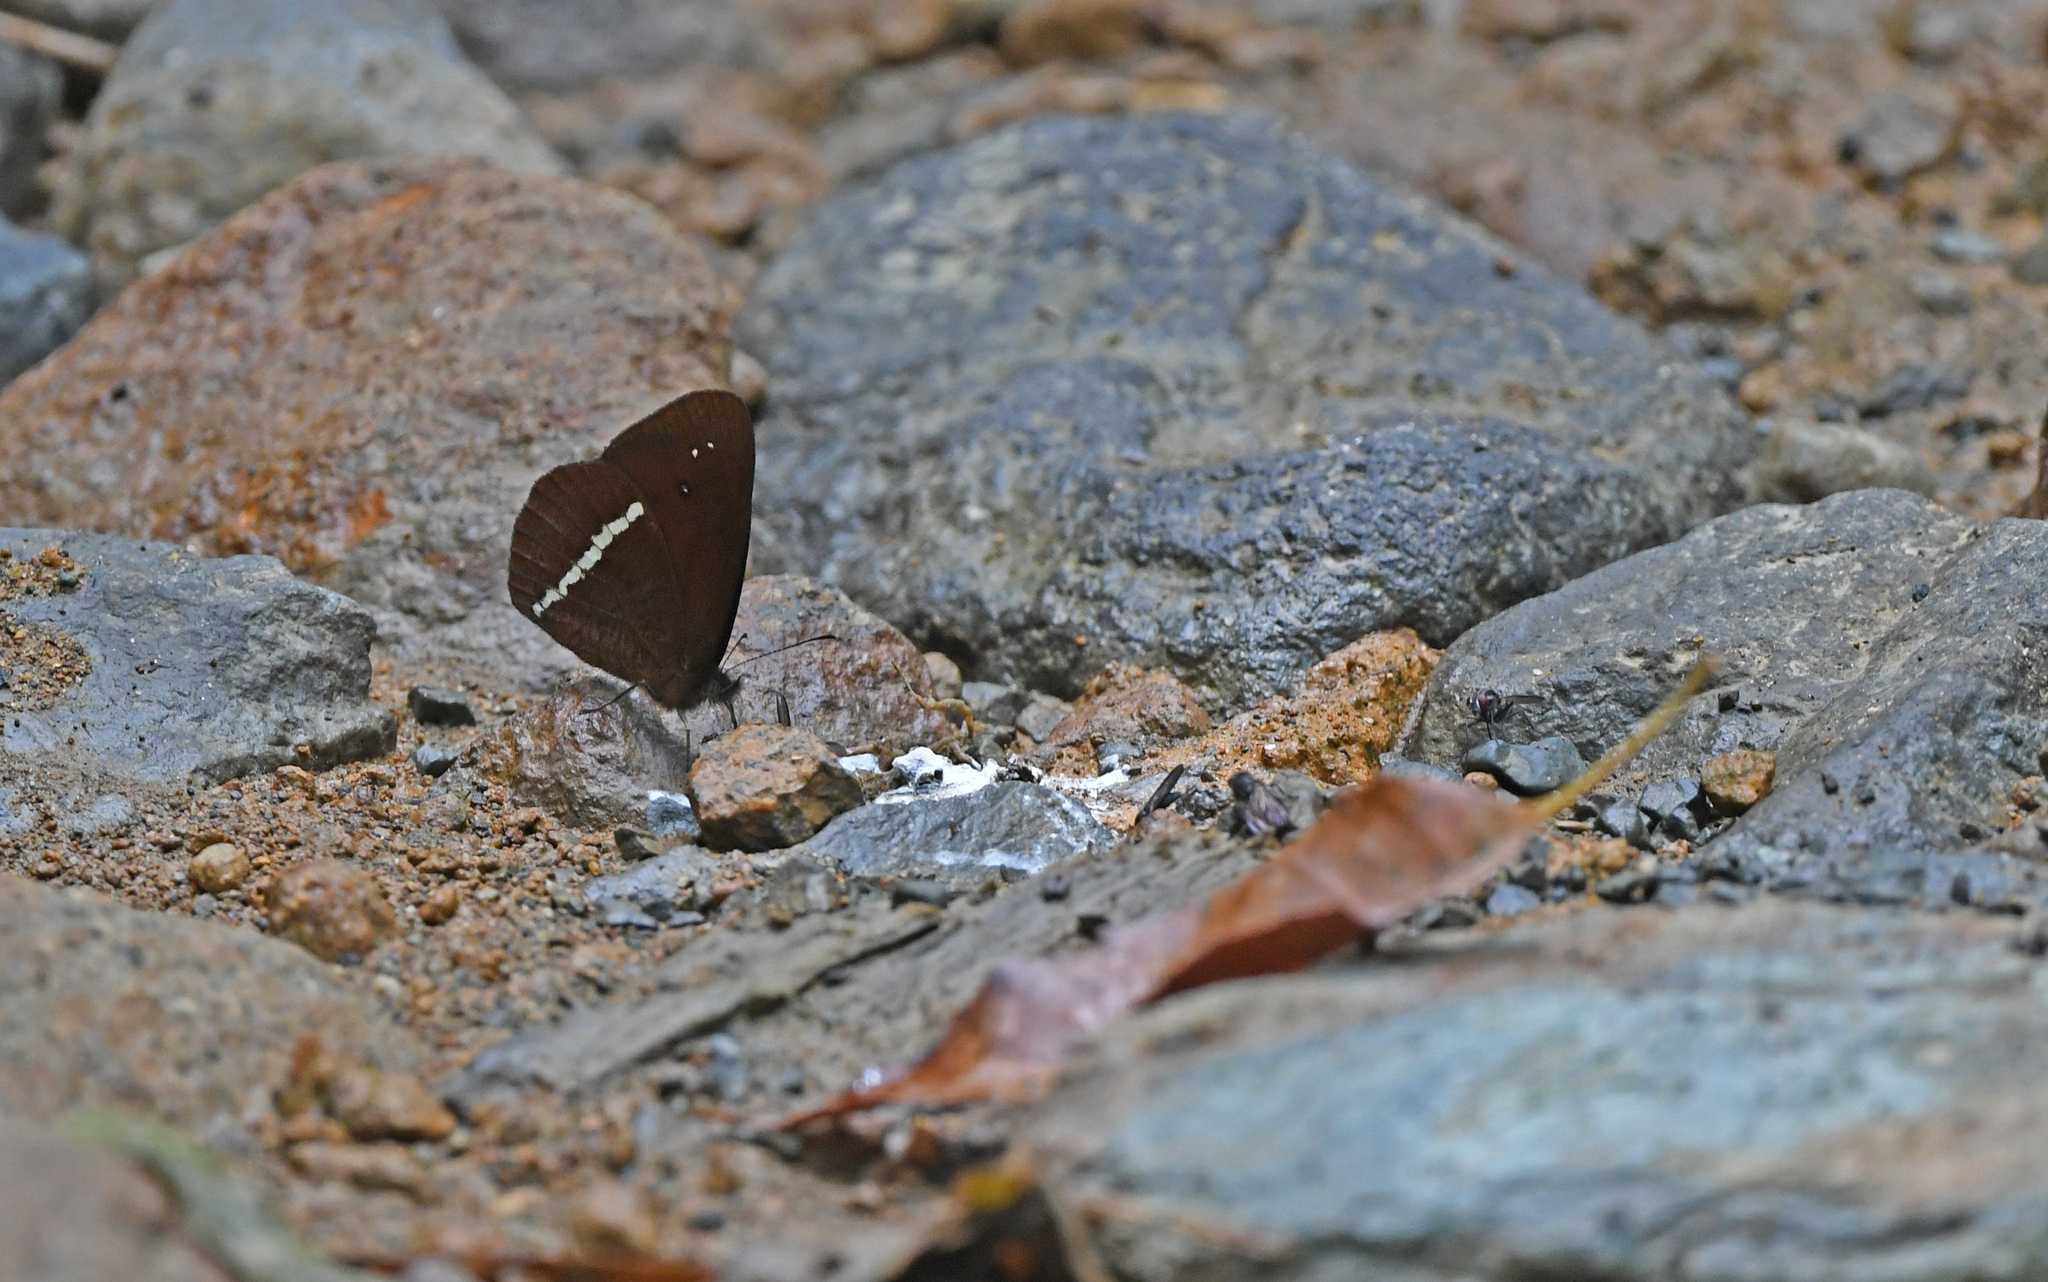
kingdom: Animalia
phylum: Arthropoda
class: Insecta
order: Lepidoptera
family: Nymphalidae
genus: Lymanopoda
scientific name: Lymanopoda albocincta
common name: White-banded mountain satyr
